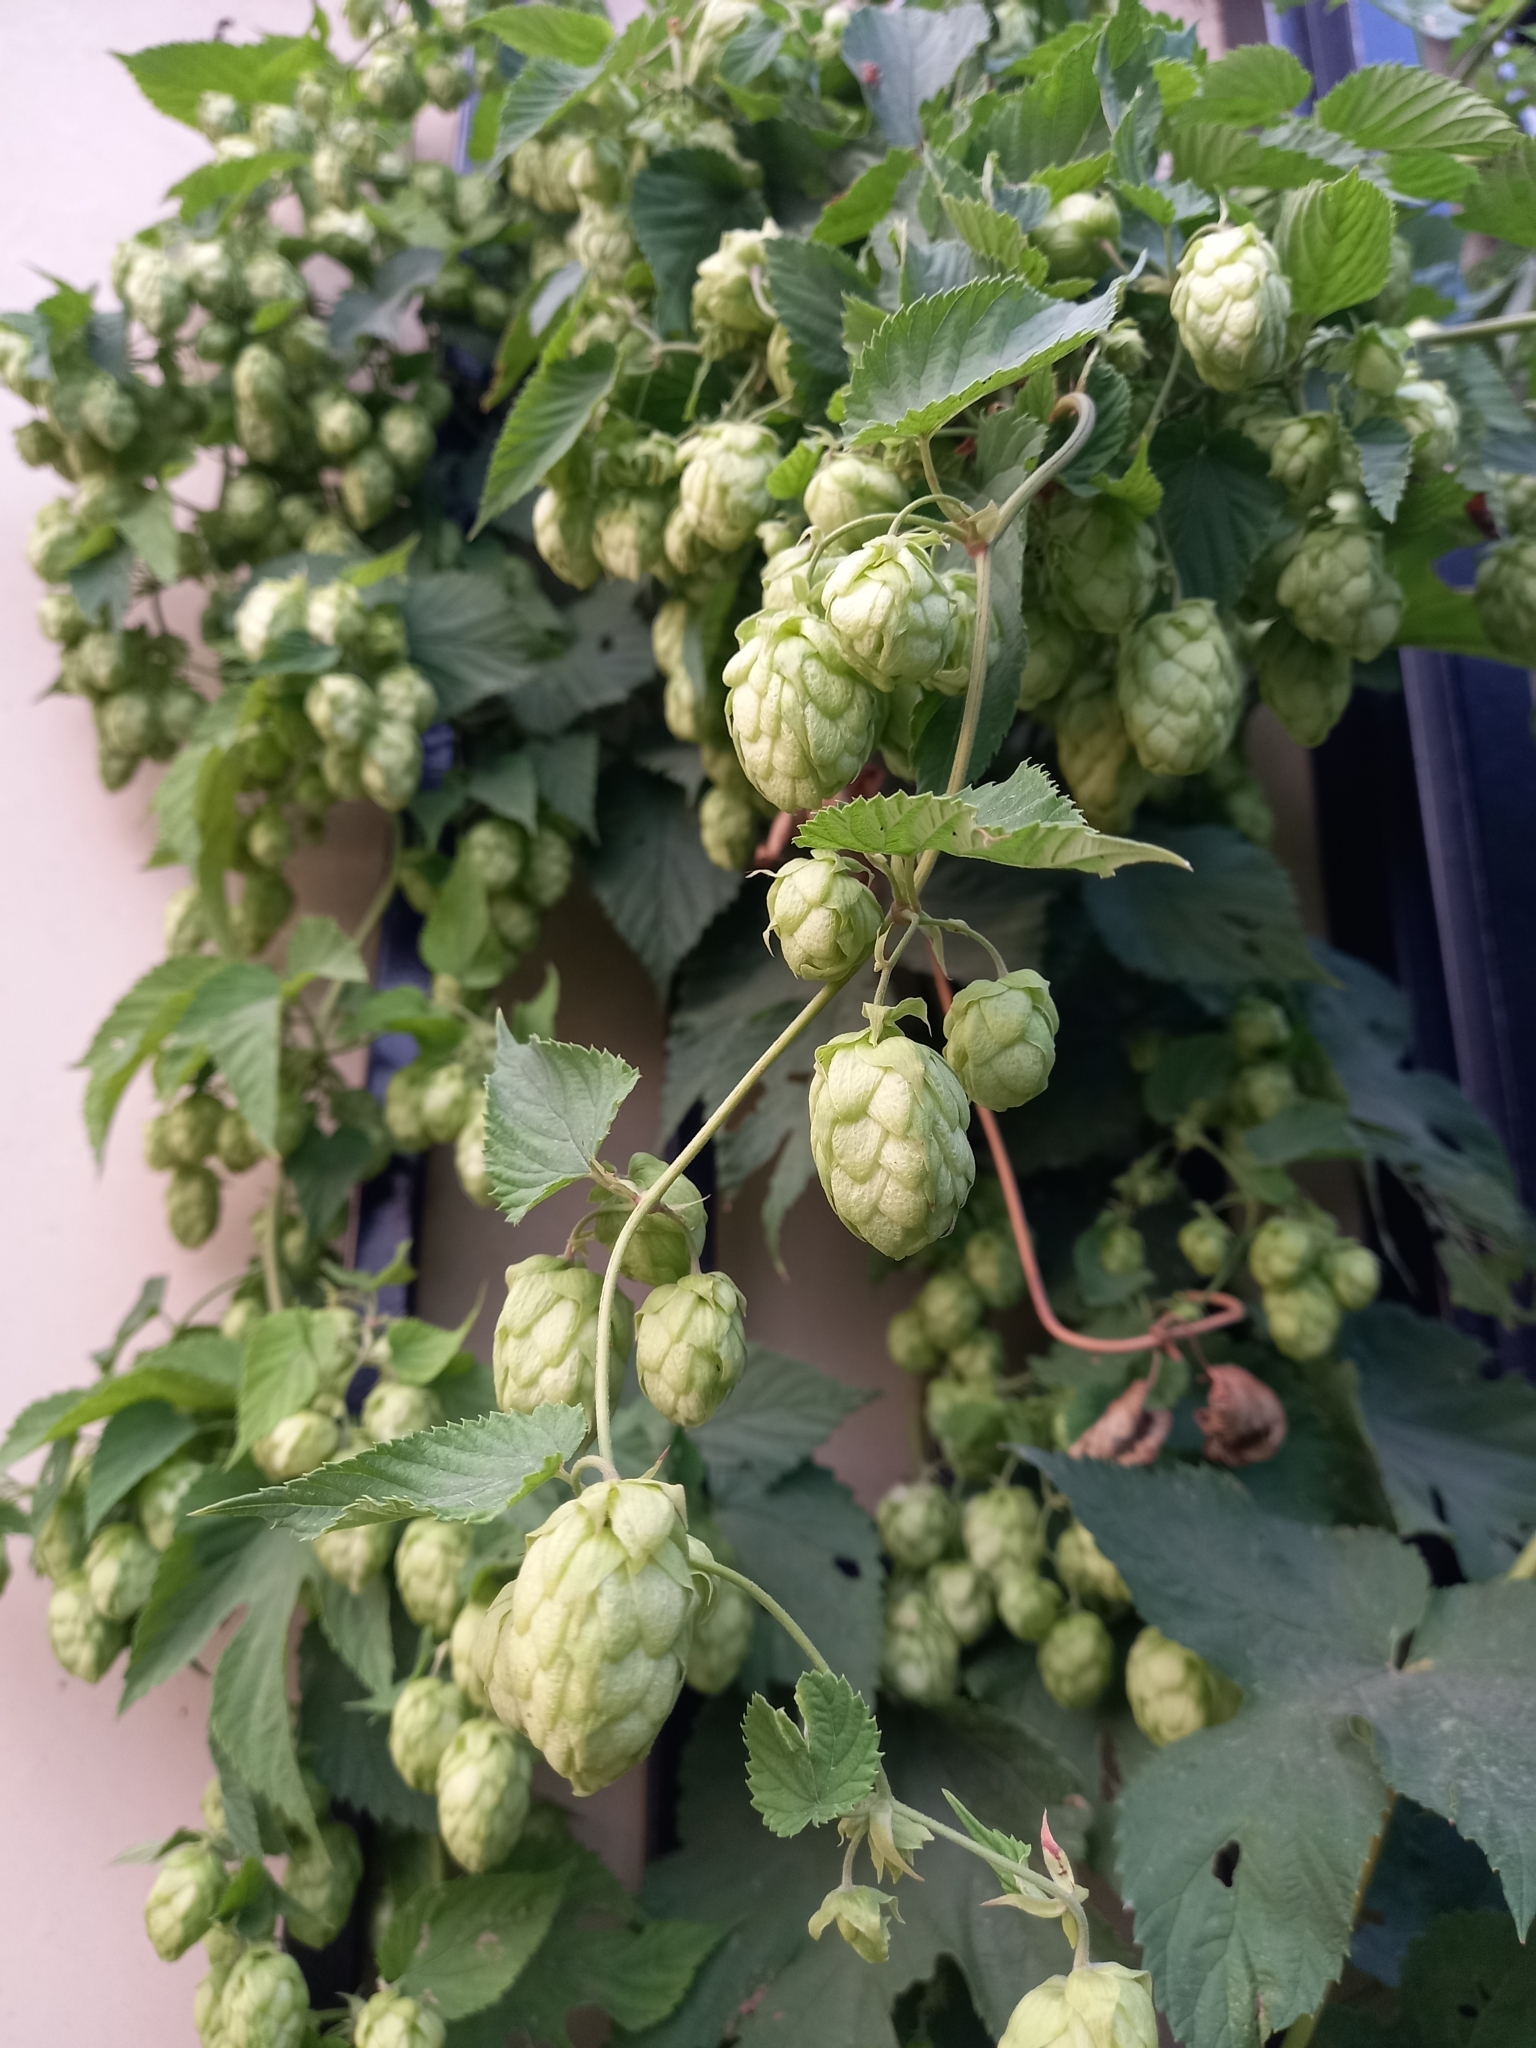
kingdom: Plantae
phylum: Tracheophyta
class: Magnoliopsida
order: Rosales
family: Cannabaceae
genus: Humulus
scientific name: Humulus lupulus
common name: Hop
